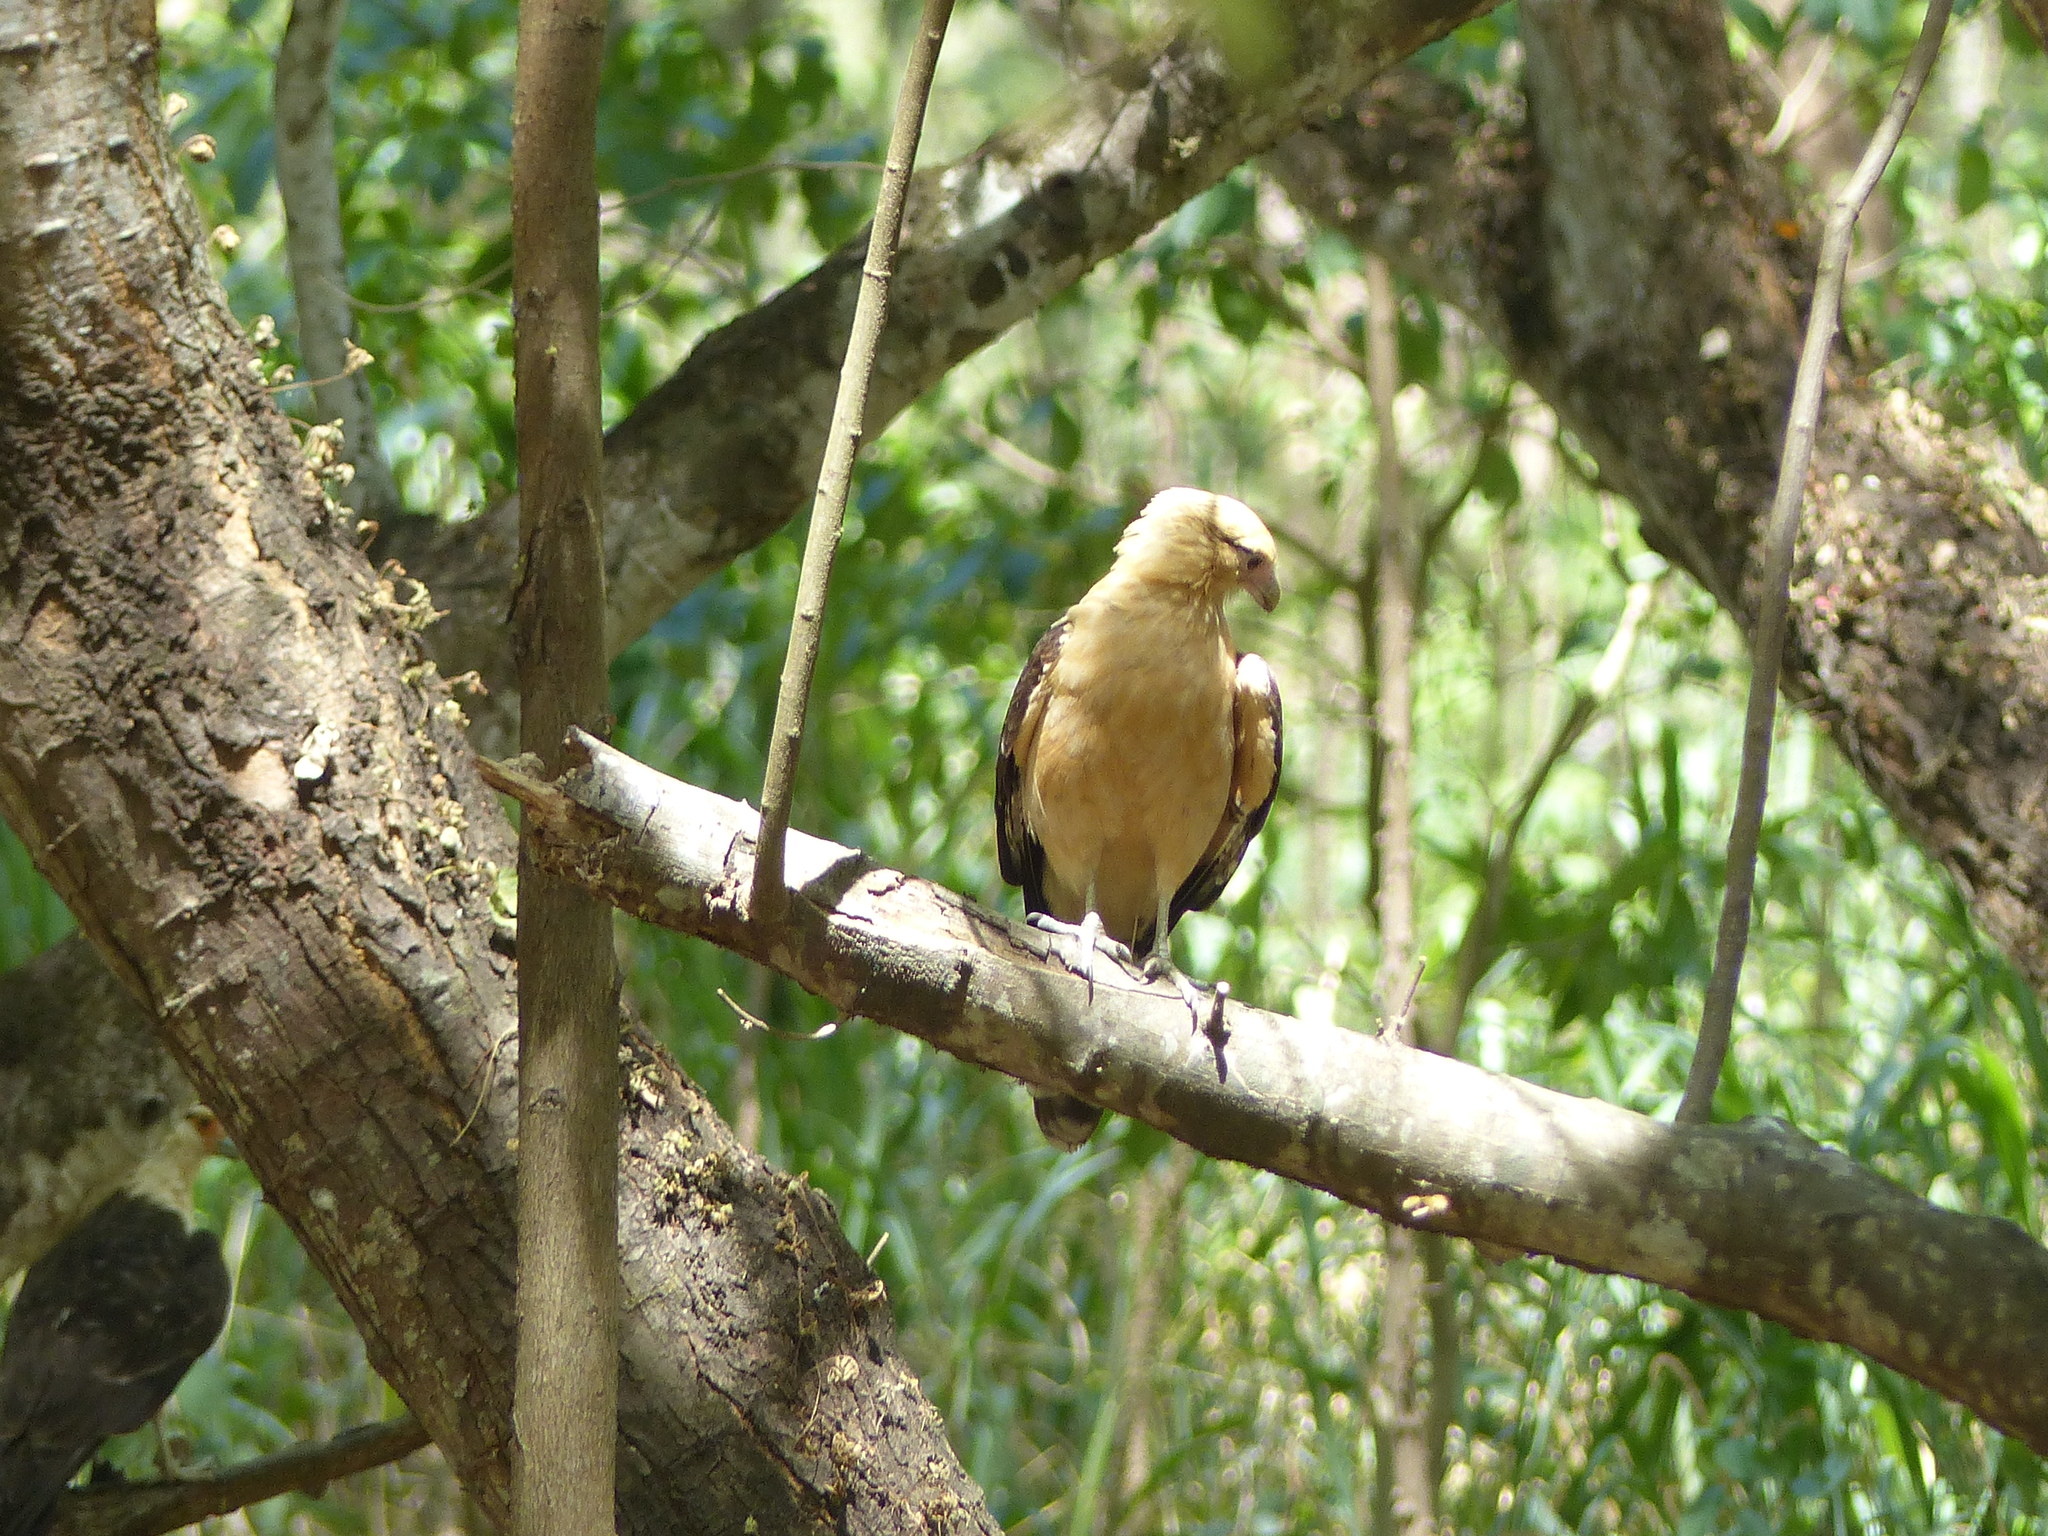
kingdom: Animalia
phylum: Chordata
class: Aves
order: Falconiformes
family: Falconidae
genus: Daptrius
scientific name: Daptrius
